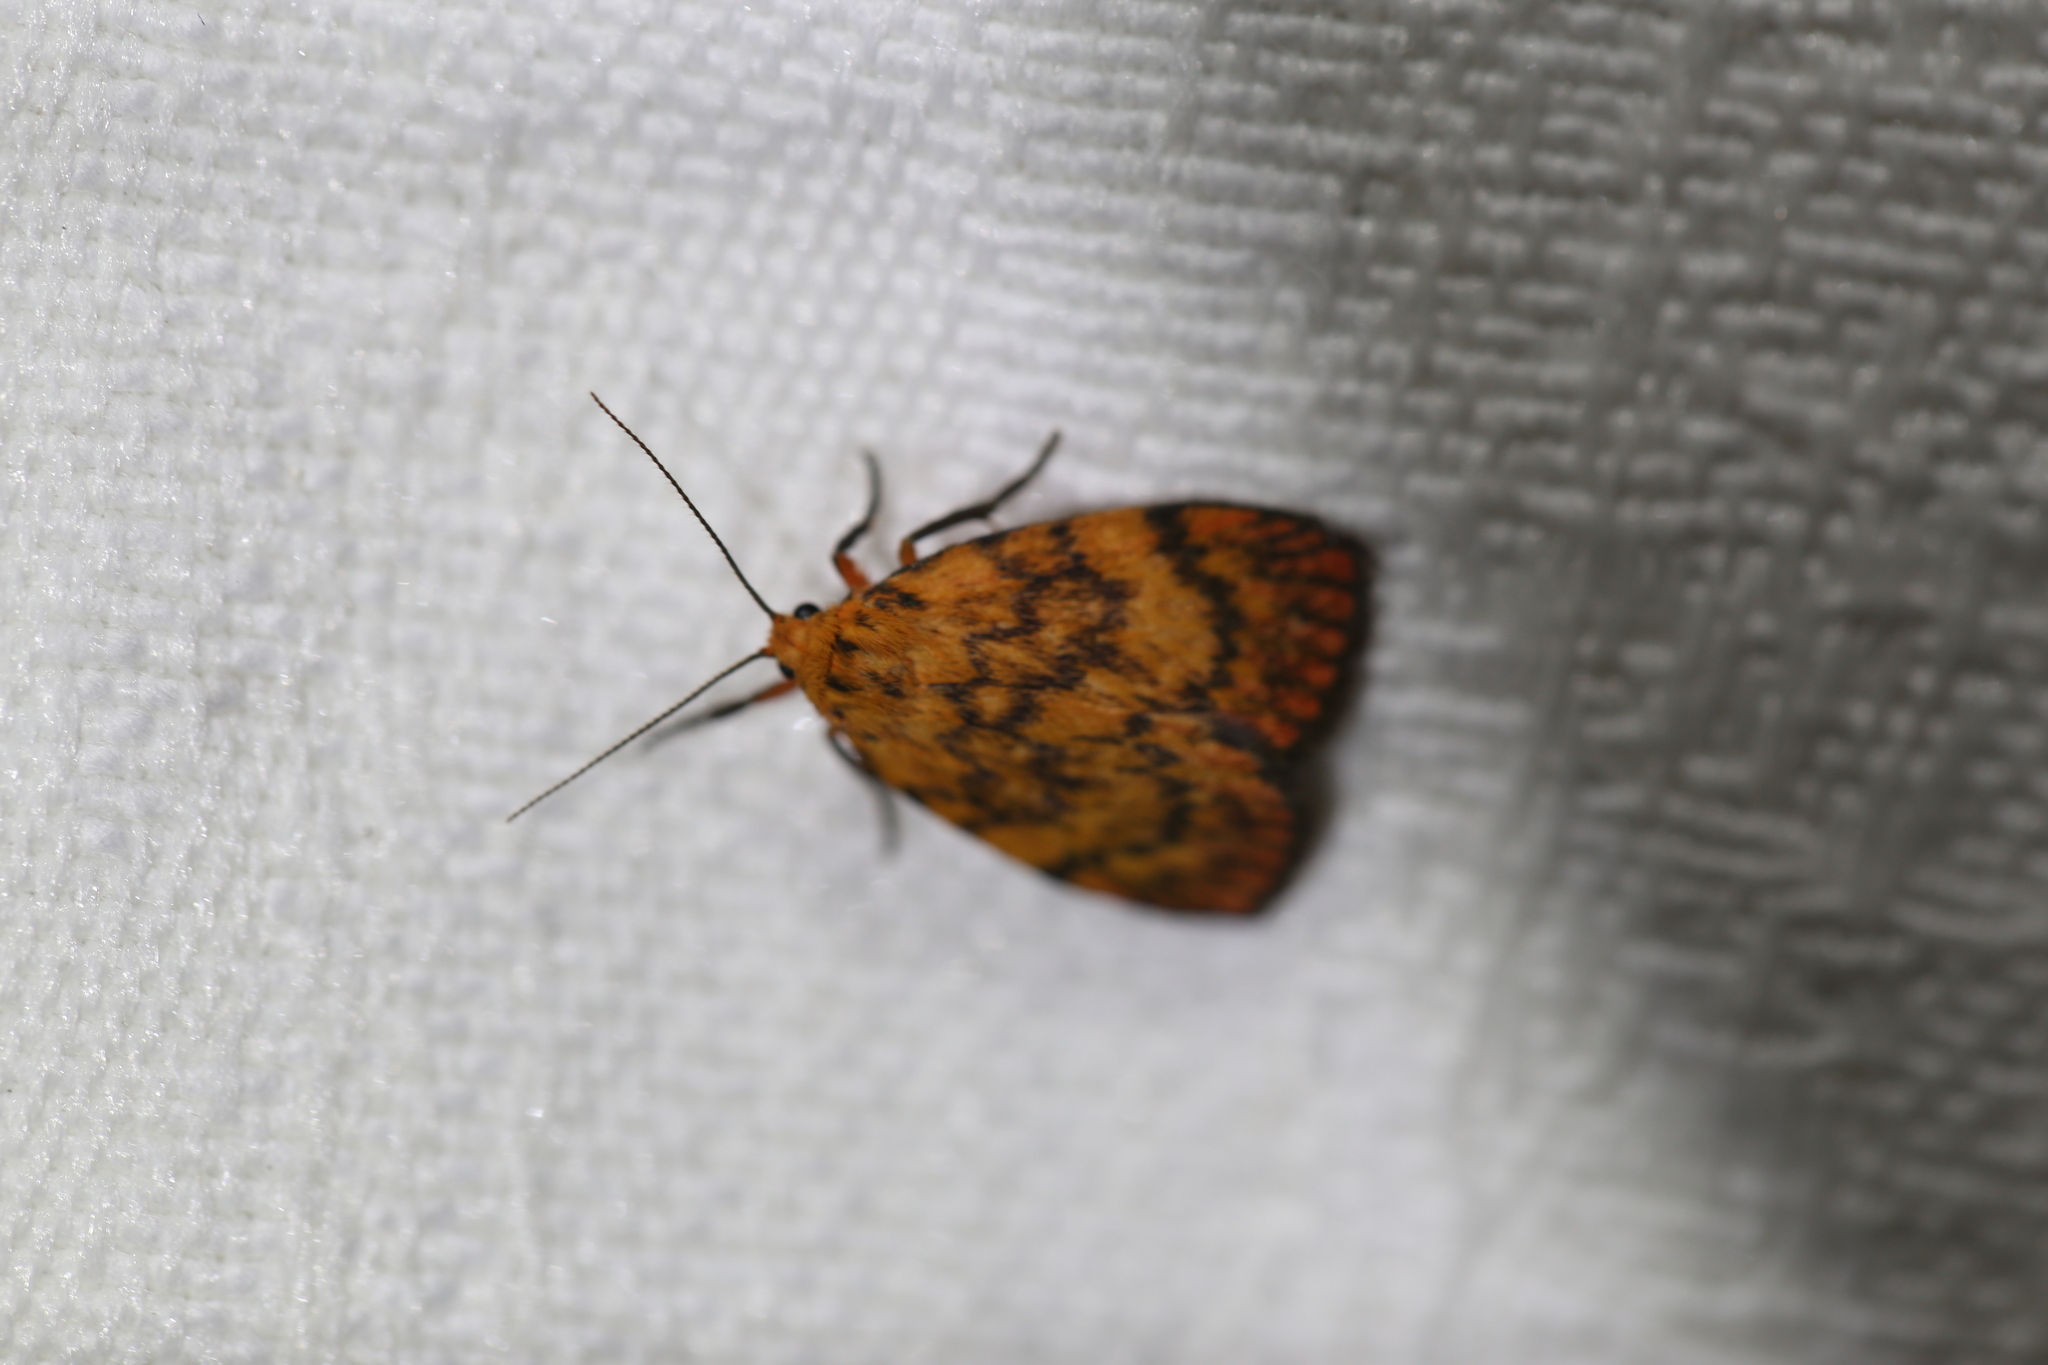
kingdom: Animalia
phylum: Arthropoda
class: Insecta
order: Lepidoptera
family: Erebidae
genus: Cyme
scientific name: Cyme structa
